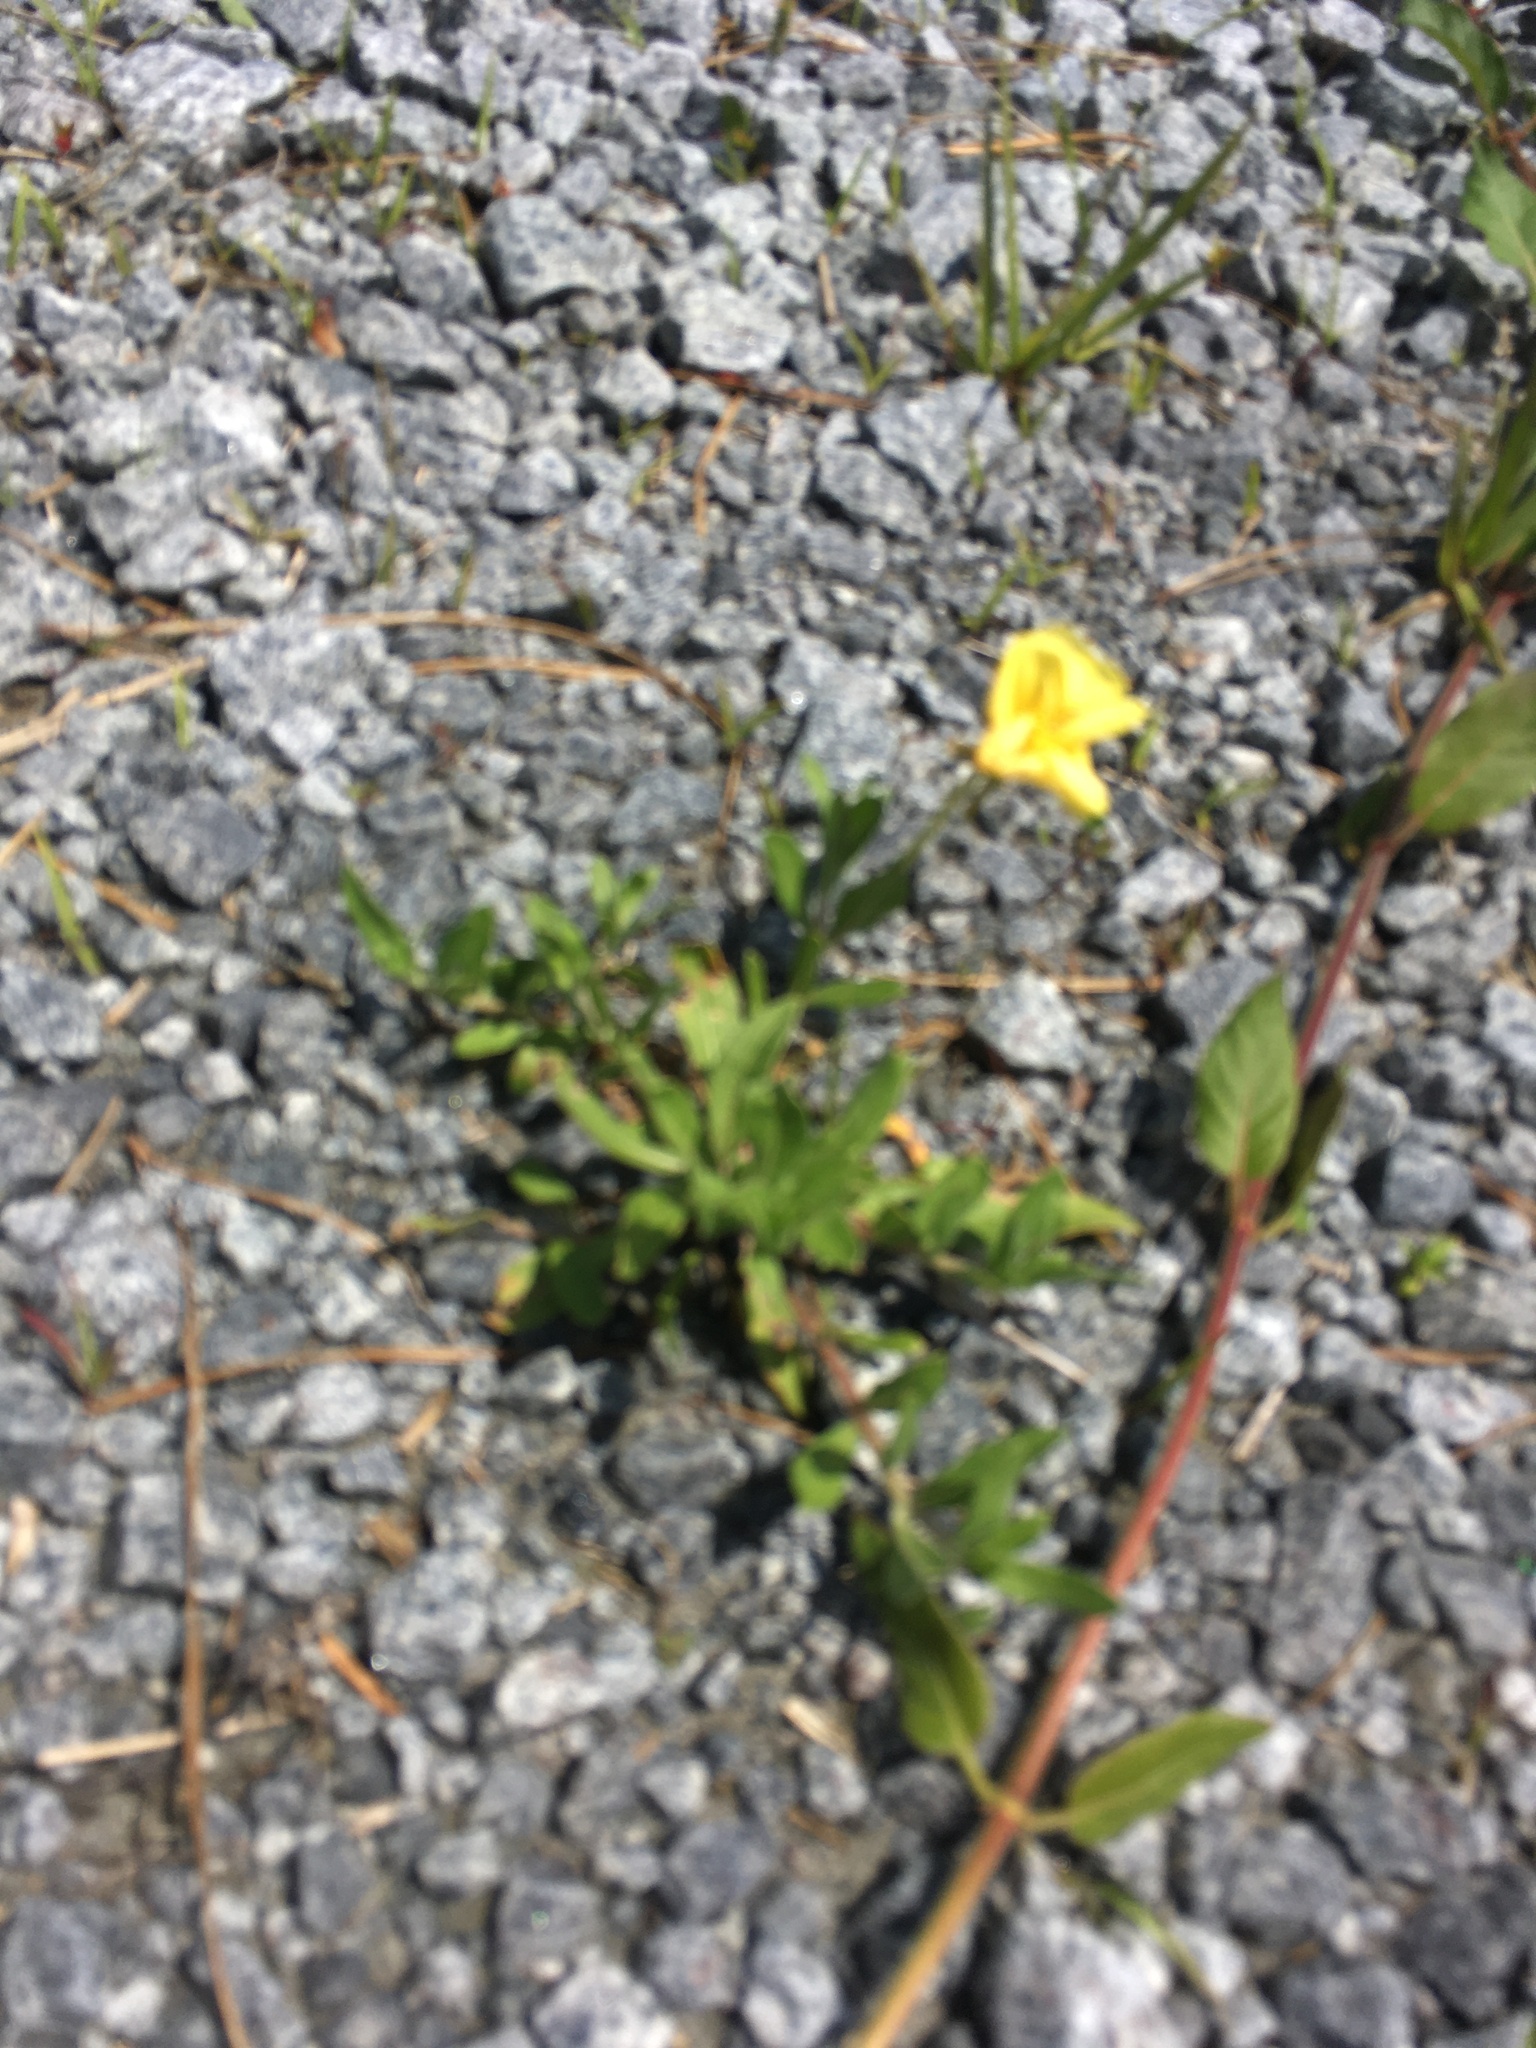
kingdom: Plantae
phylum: Tracheophyta
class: Magnoliopsida
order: Myrtales
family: Onagraceae
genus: Oenothera
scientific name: Oenothera laciniata
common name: Cut-leaved evening-primrose
